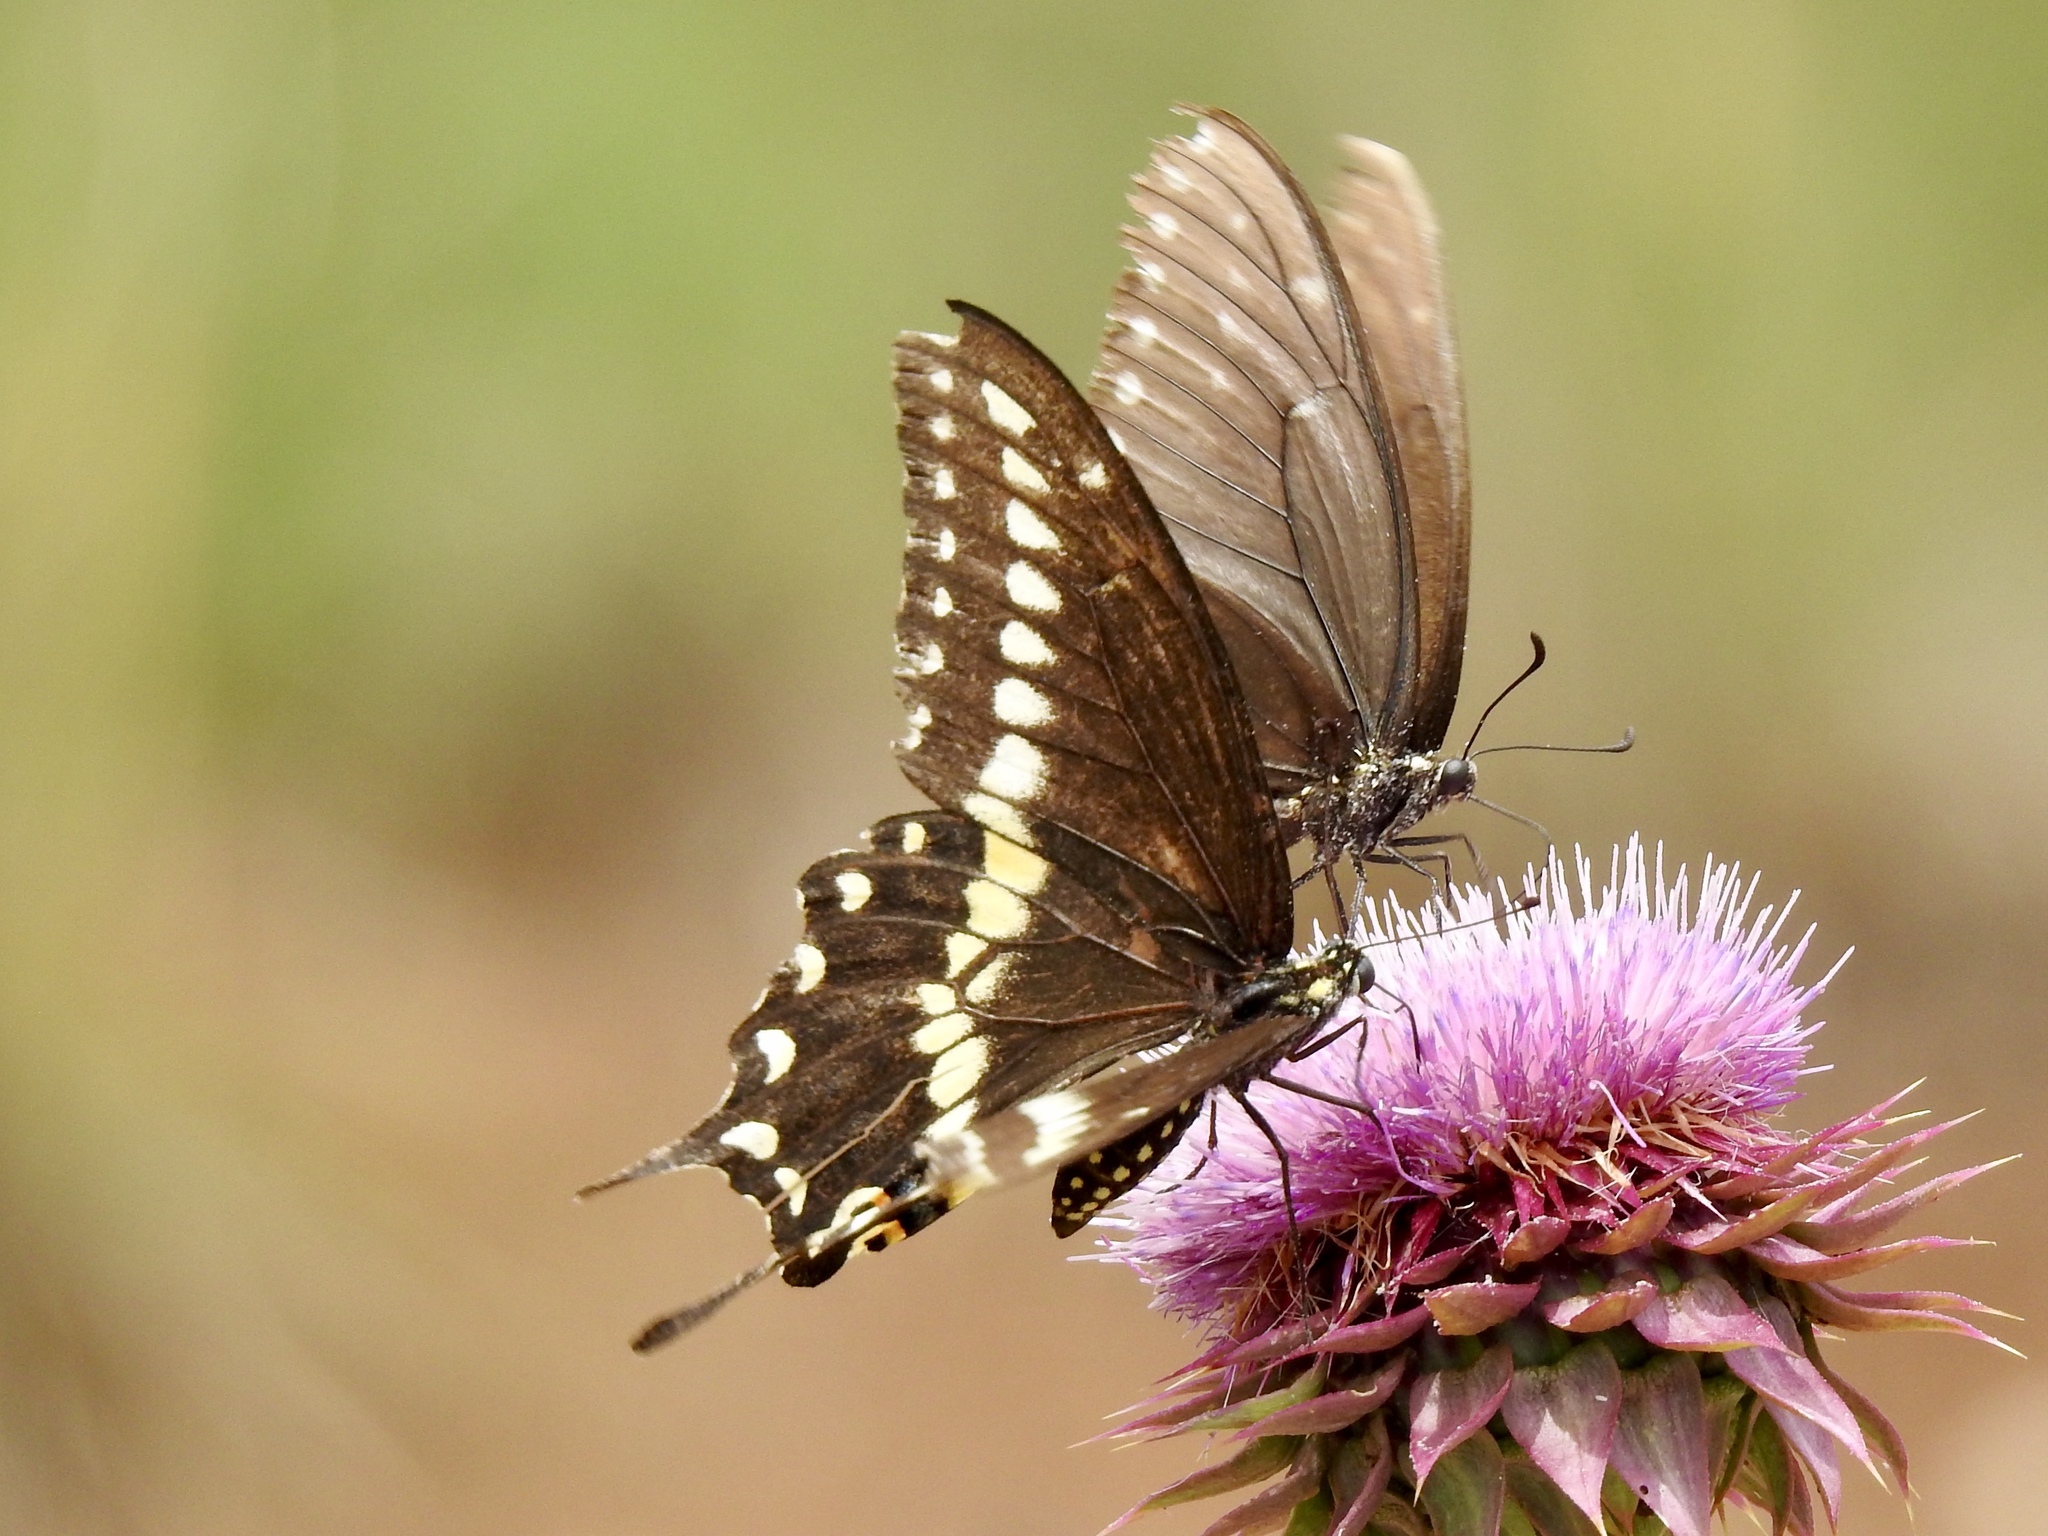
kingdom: Animalia
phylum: Arthropoda
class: Insecta
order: Lepidoptera
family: Papilionidae
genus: Papilio
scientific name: Papilio polyxenes
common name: Black swallowtail
